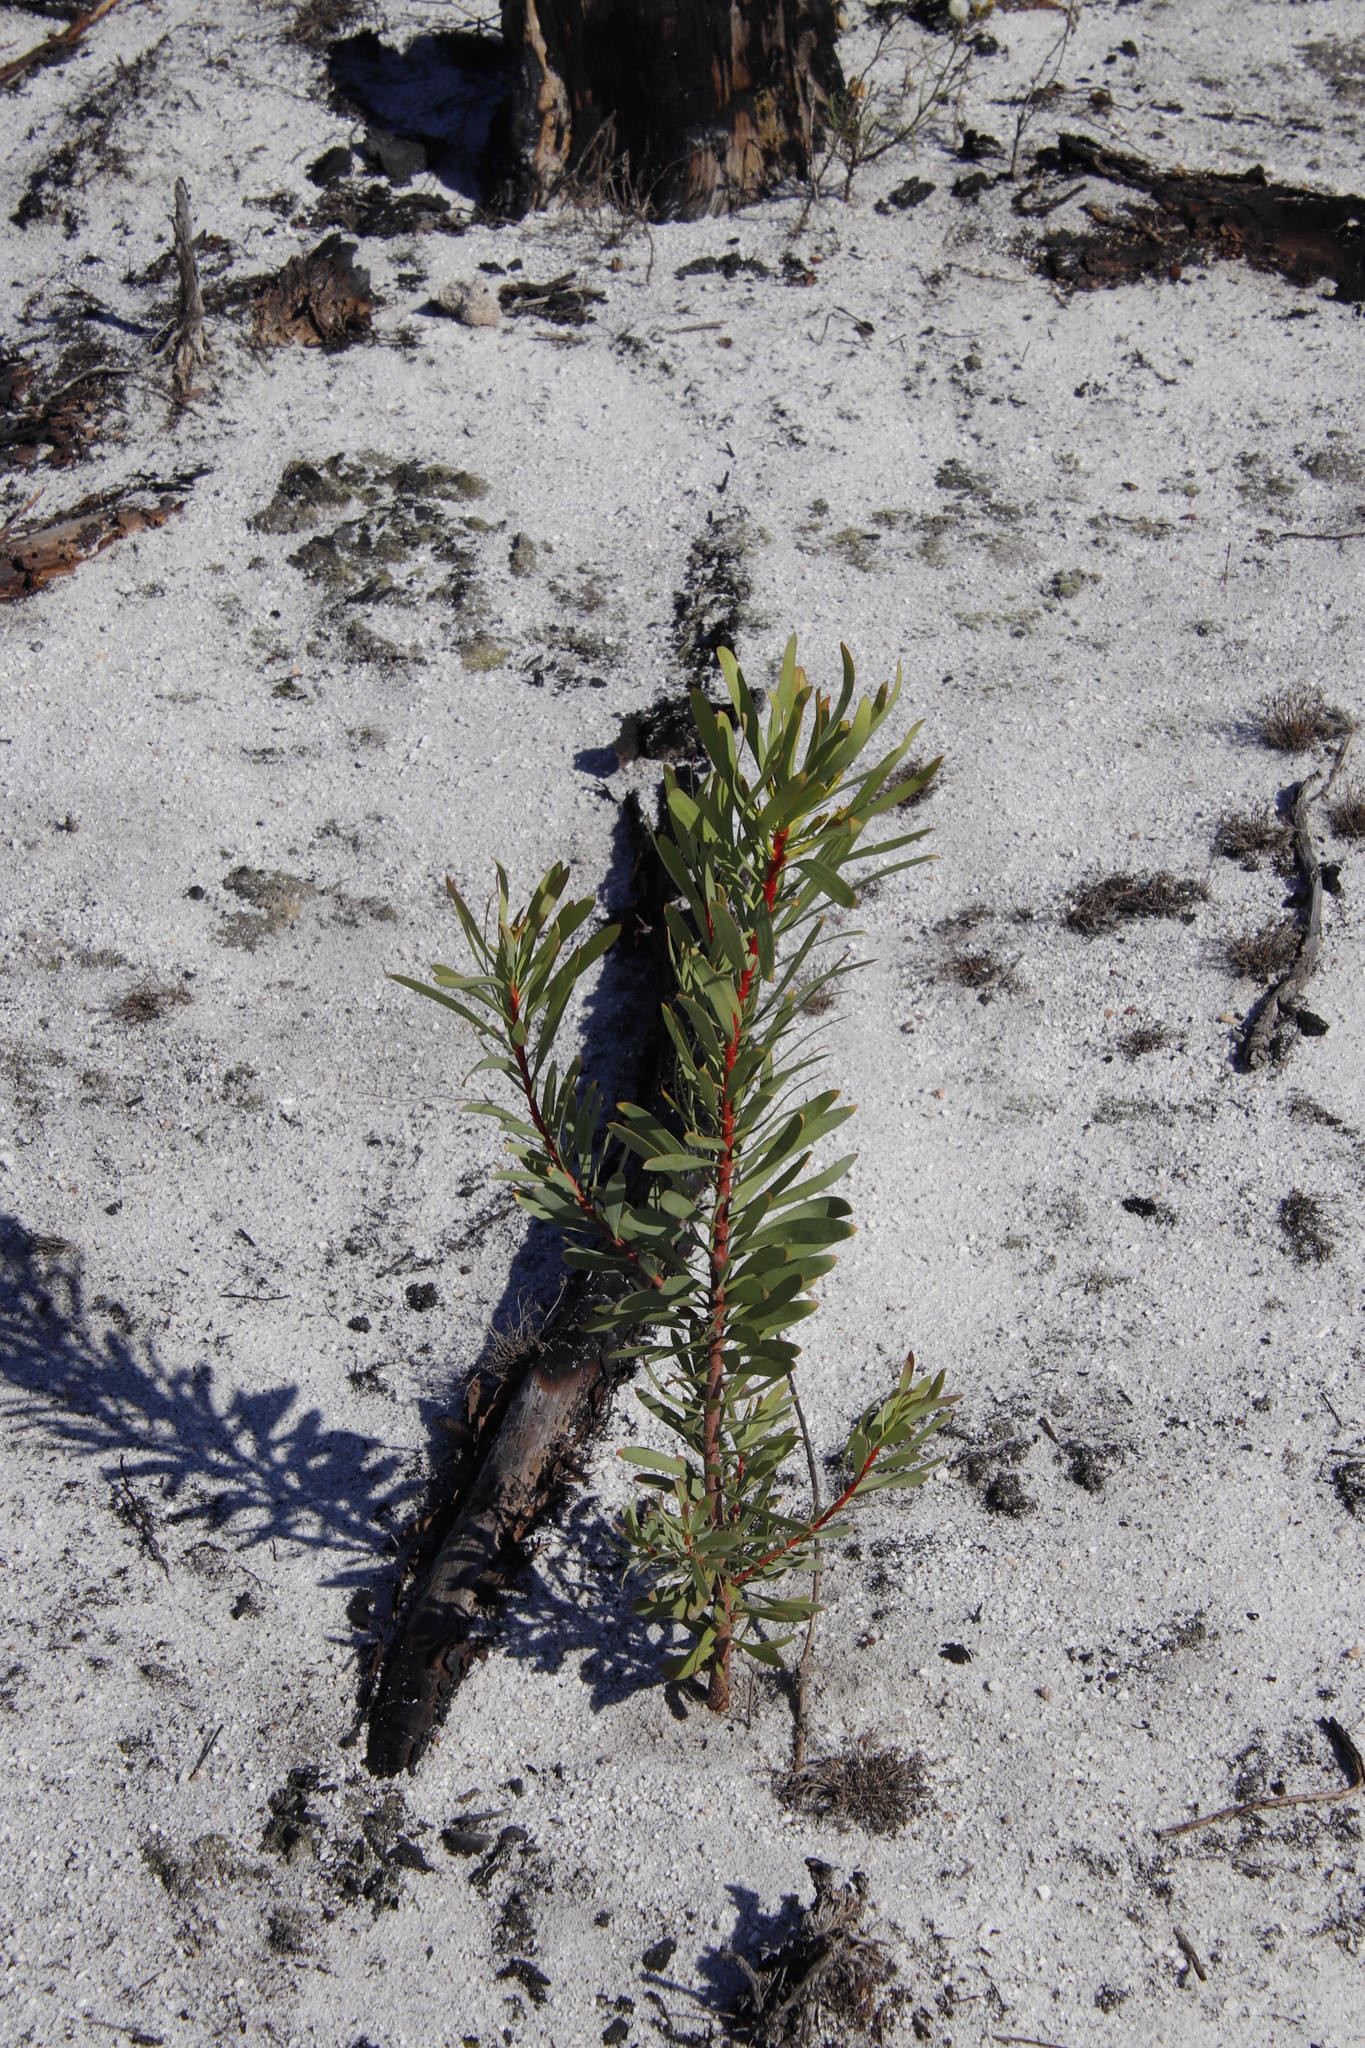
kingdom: Plantae
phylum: Tracheophyta
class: Magnoliopsida
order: Proteales
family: Proteaceae
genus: Protea
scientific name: Protea repens
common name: Sugarbush
